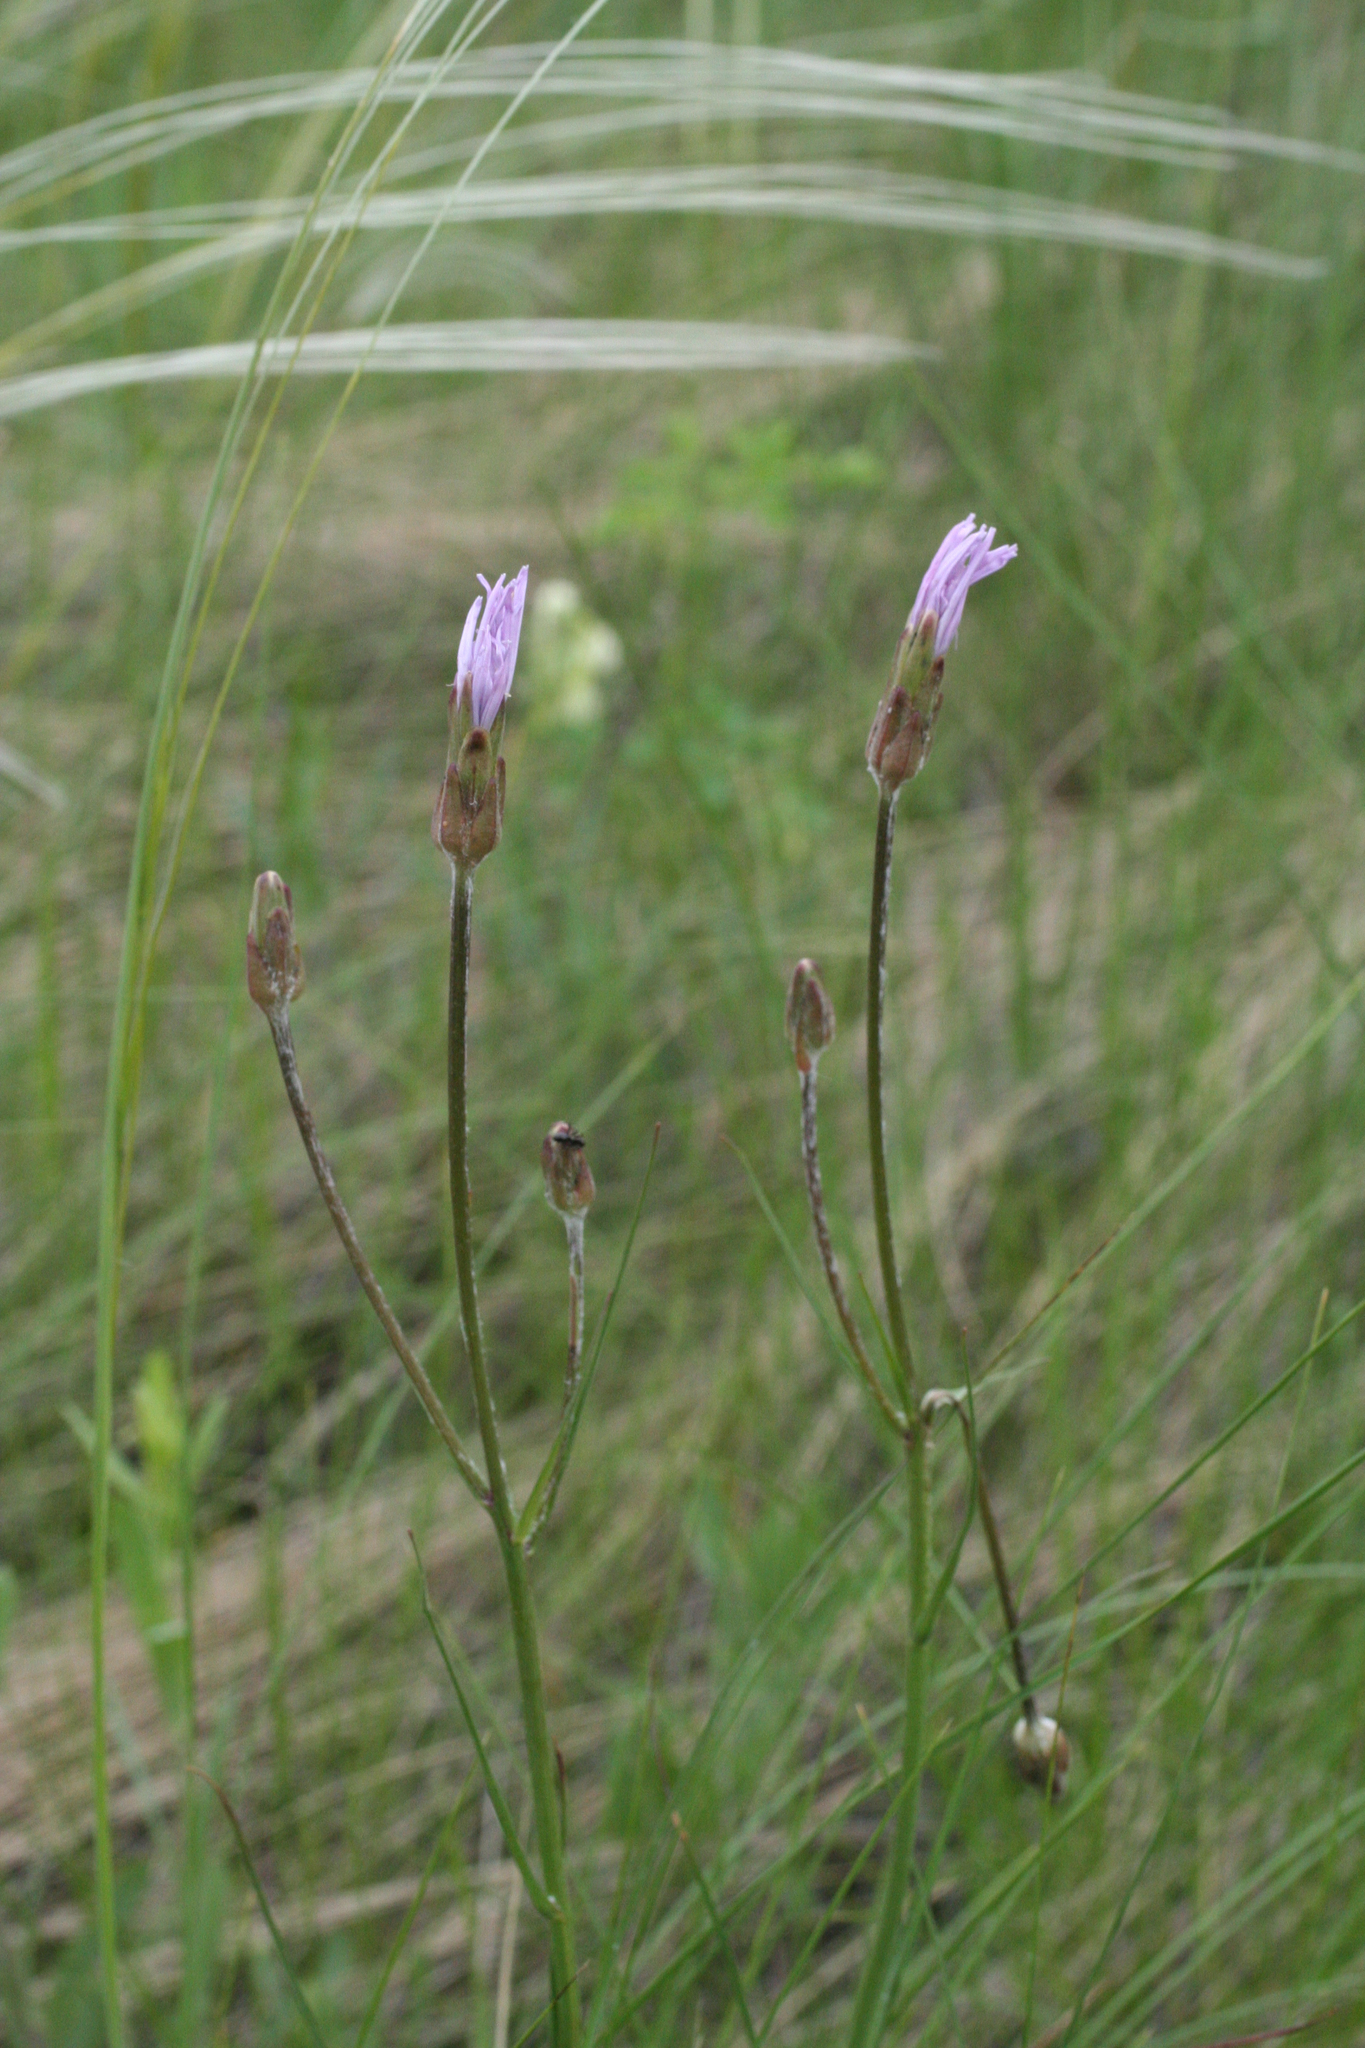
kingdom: Plantae
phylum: Tracheophyta
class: Magnoliopsida
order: Asterales
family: Asteraceae
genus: Scorzonera
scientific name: Scorzonera purpurea
